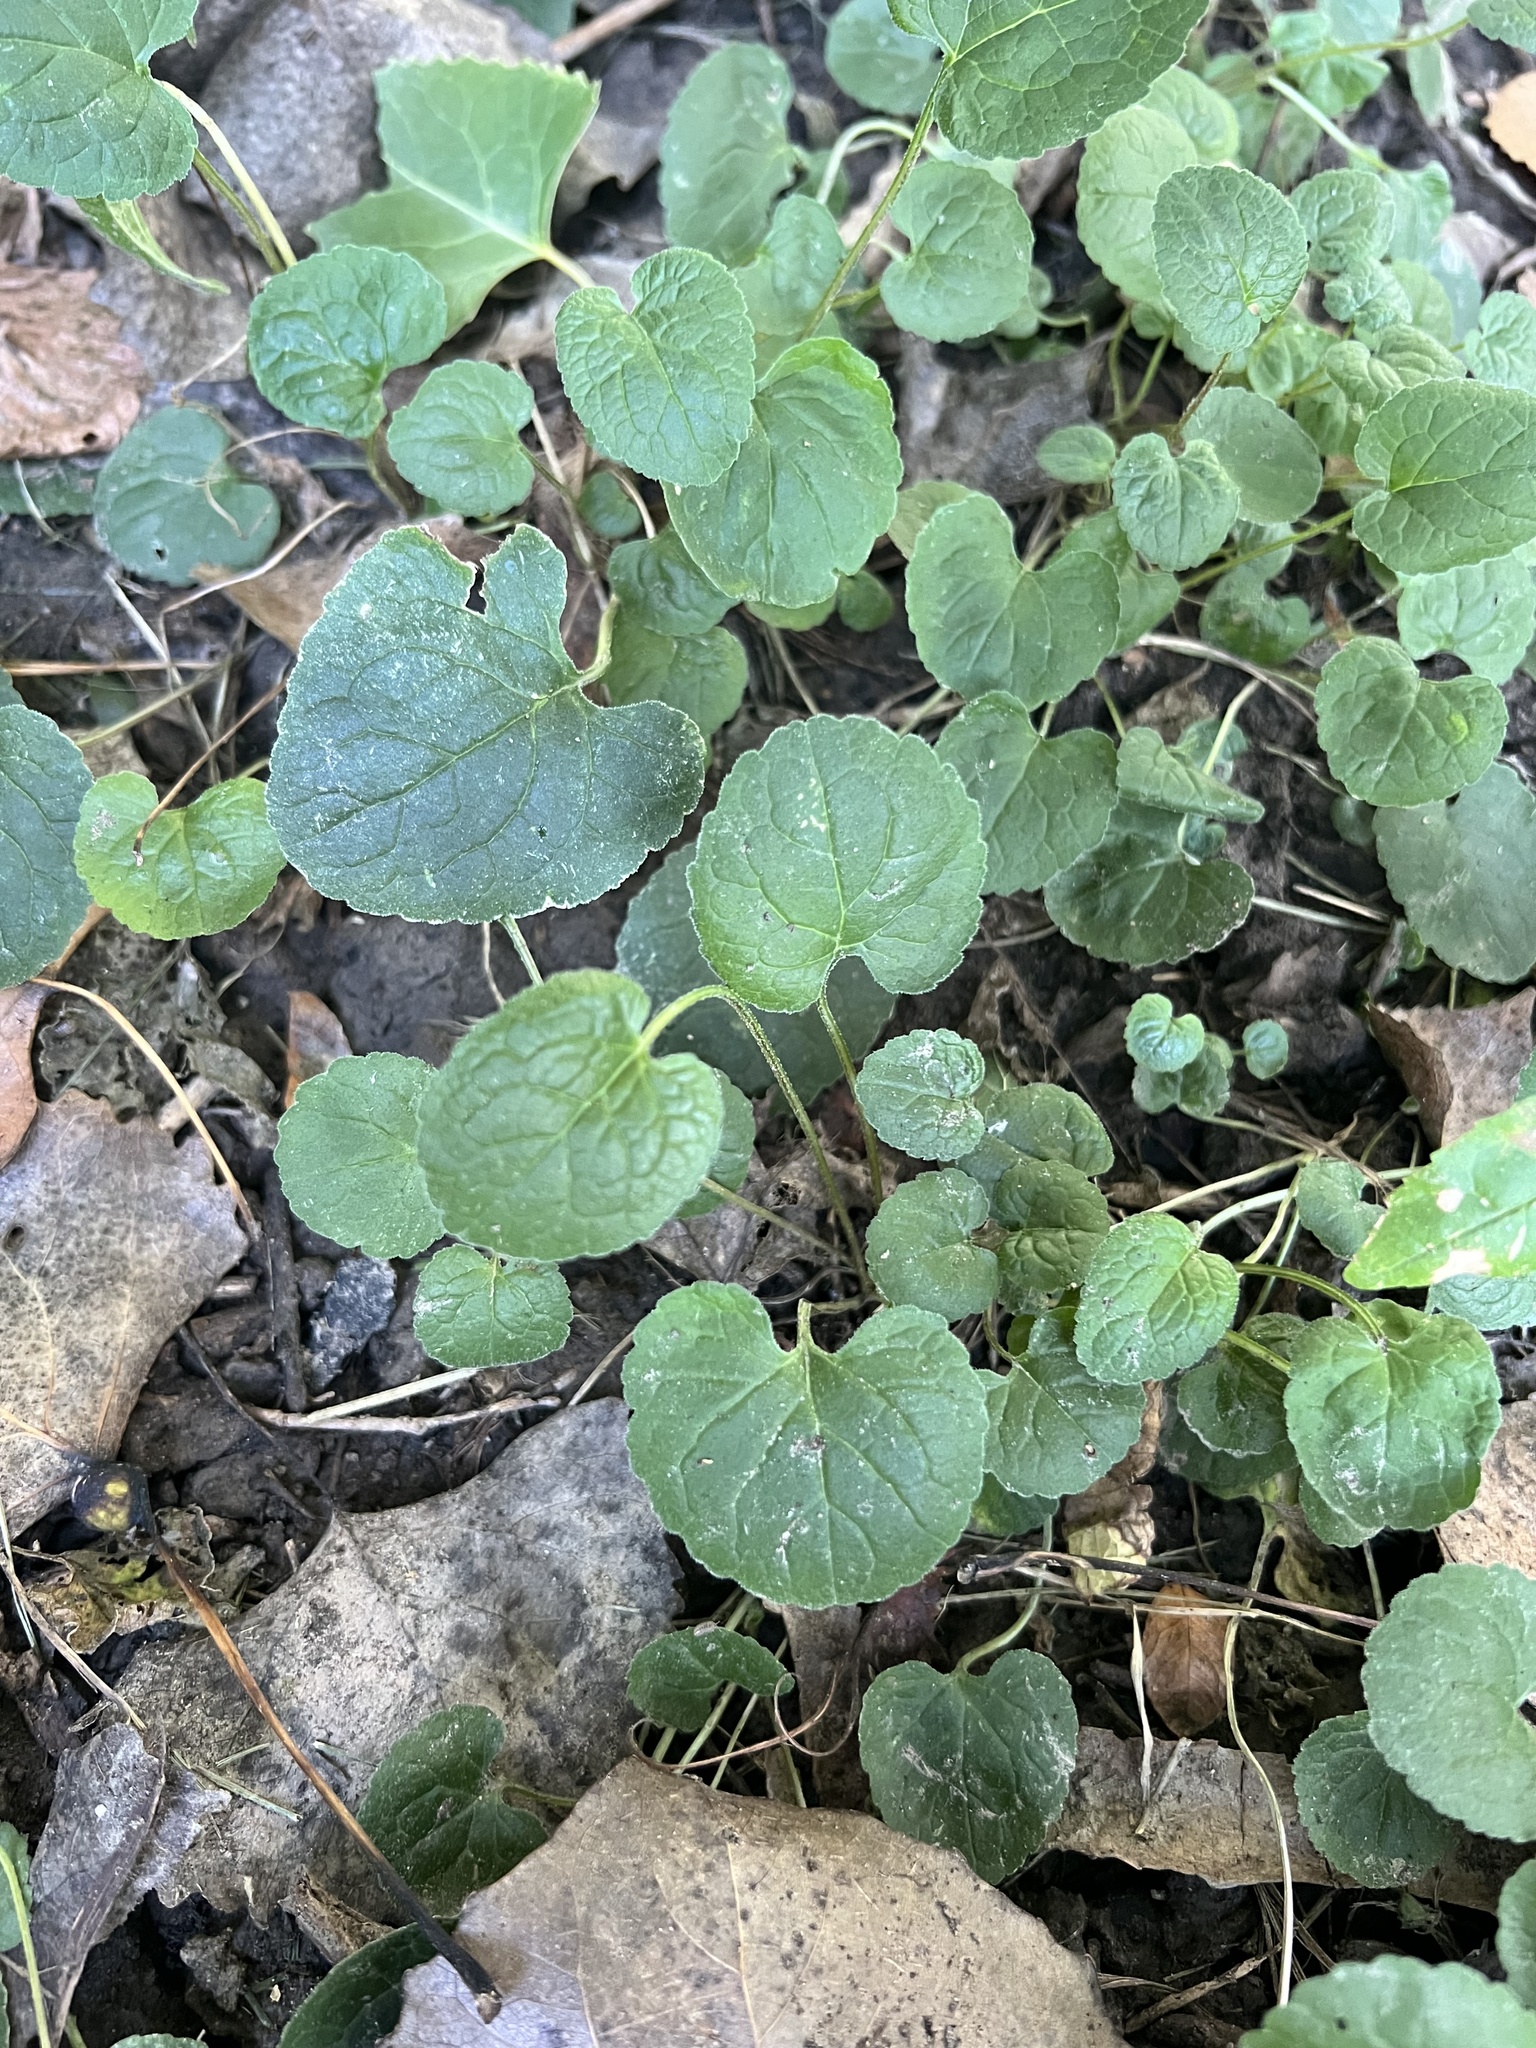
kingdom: Plantae
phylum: Tracheophyta
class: Magnoliopsida
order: Malpighiales
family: Violaceae
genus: Viola
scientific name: Viola sororia
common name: Dooryard violet
